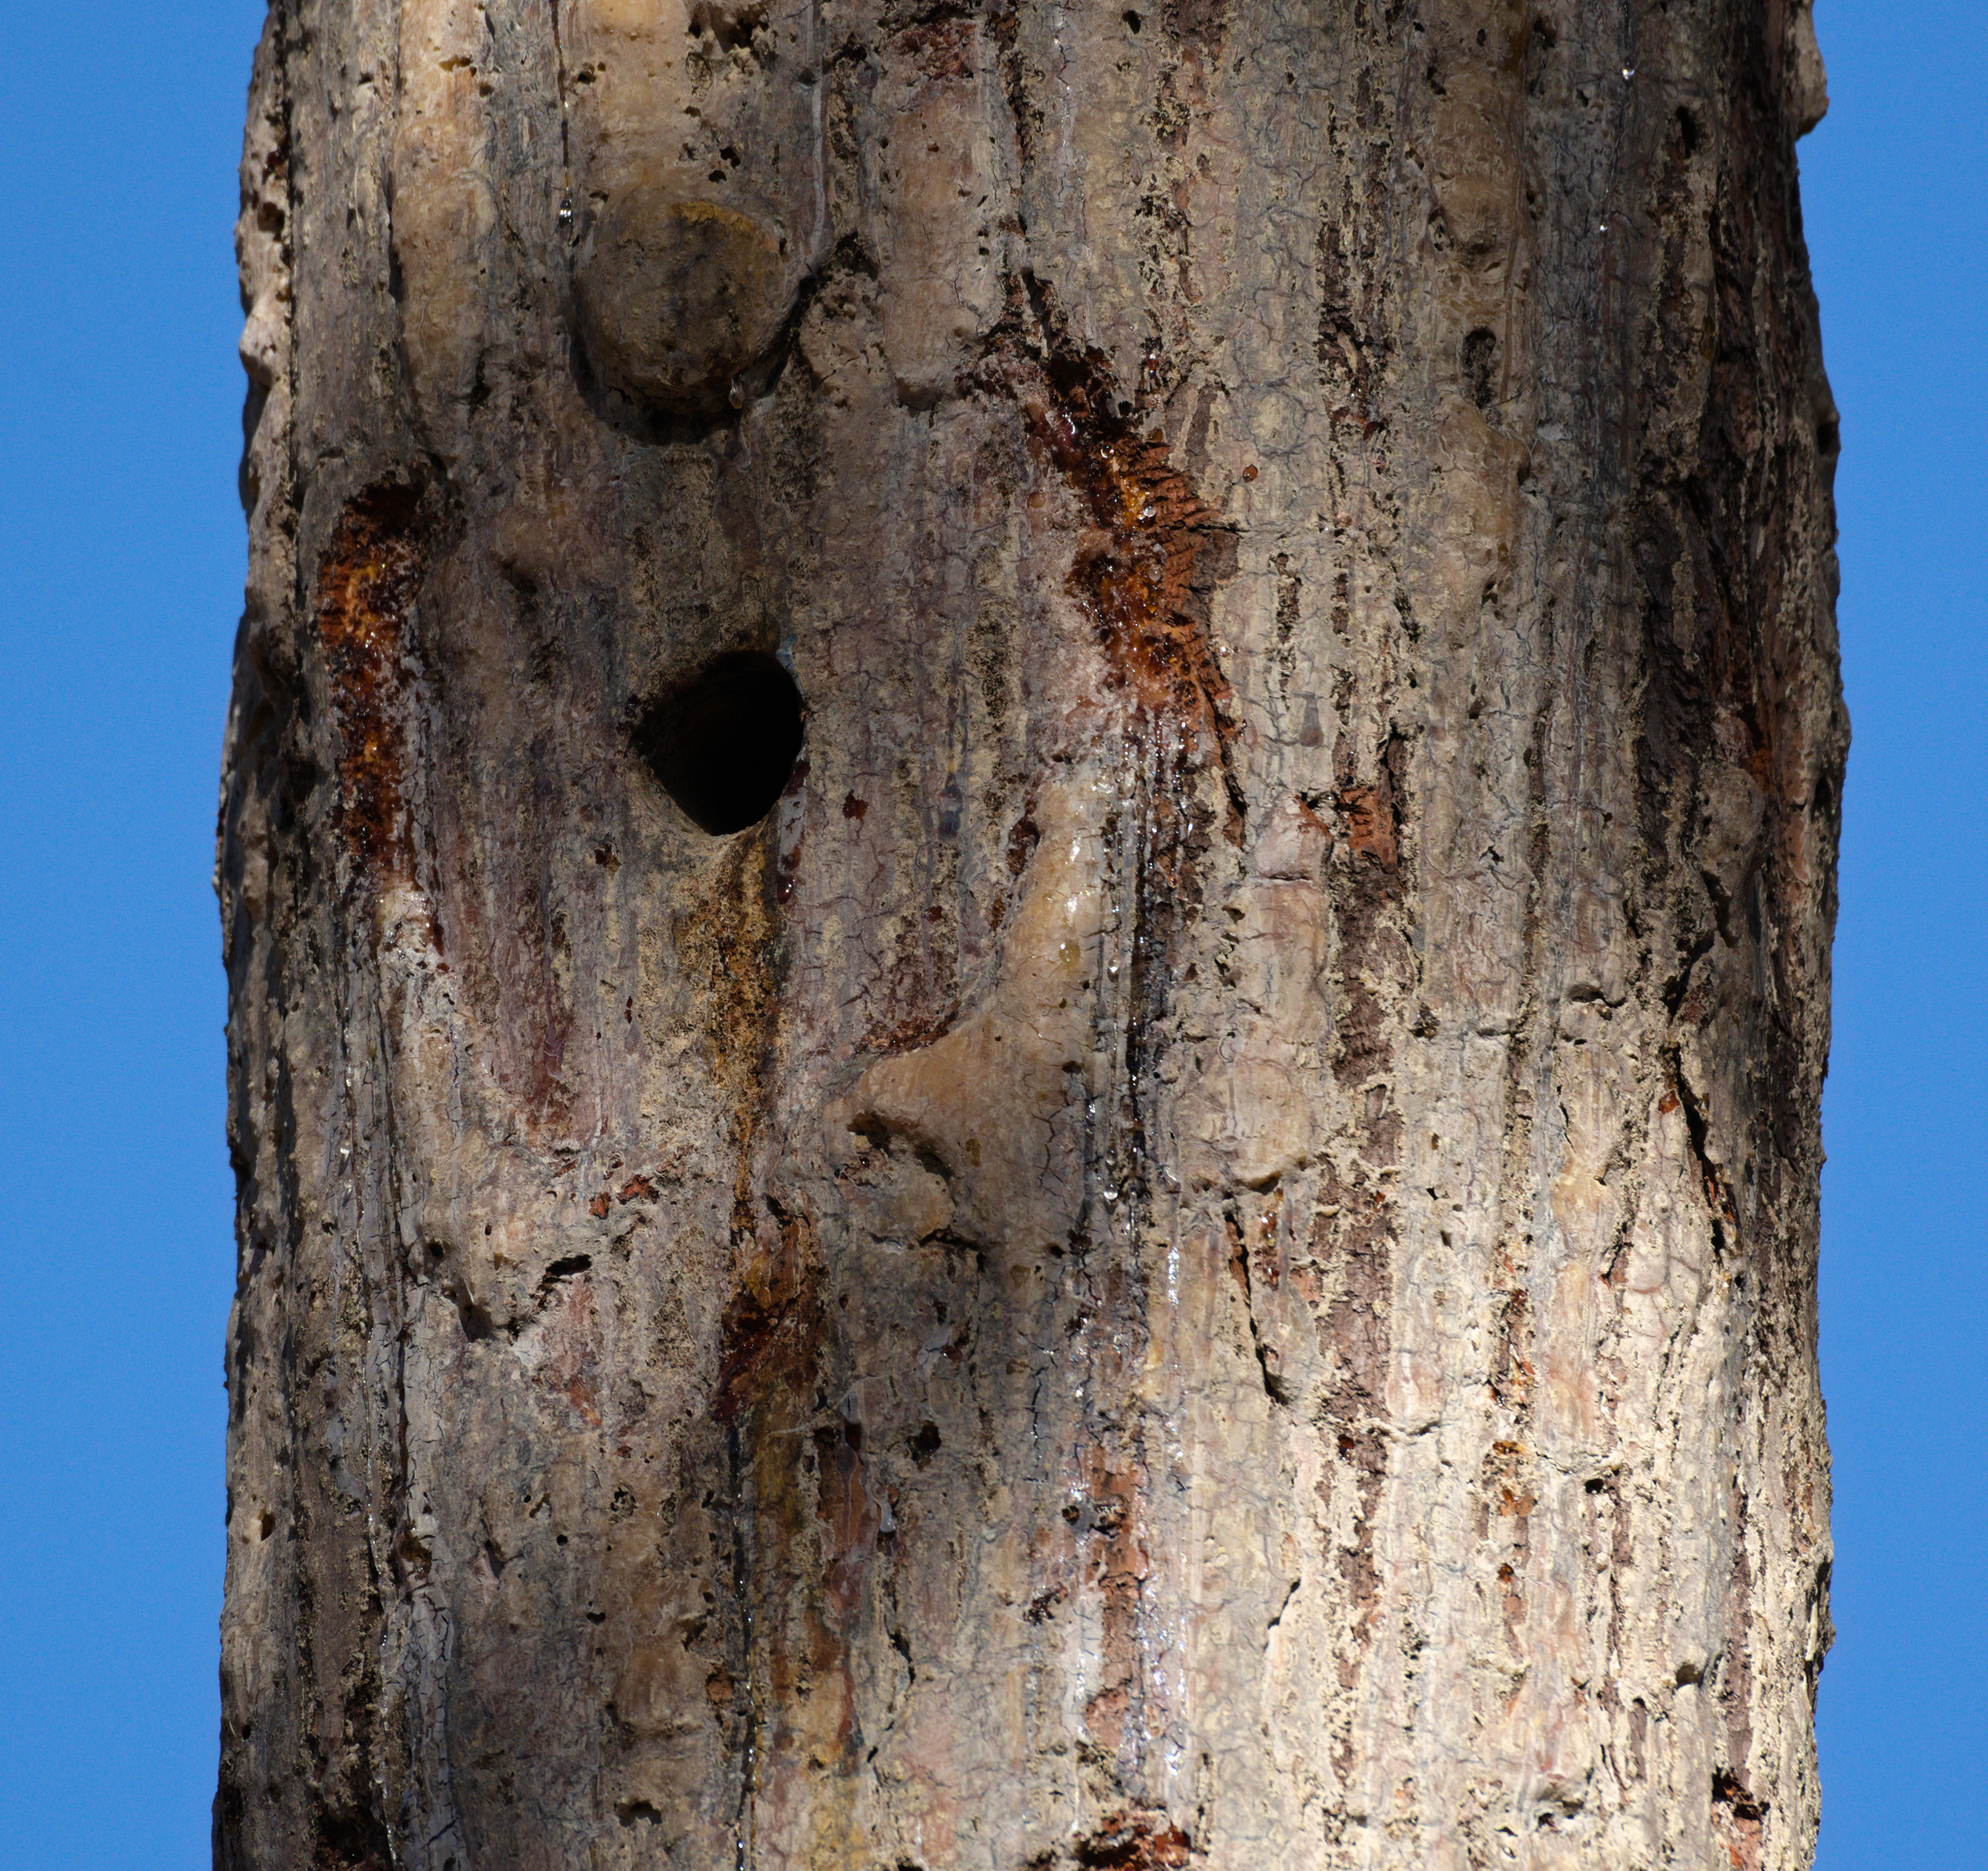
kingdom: Plantae
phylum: Tracheophyta
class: Pinopsida
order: Pinales
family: Pinaceae
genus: Pinus
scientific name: Pinus palustris
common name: Longleaf pine
